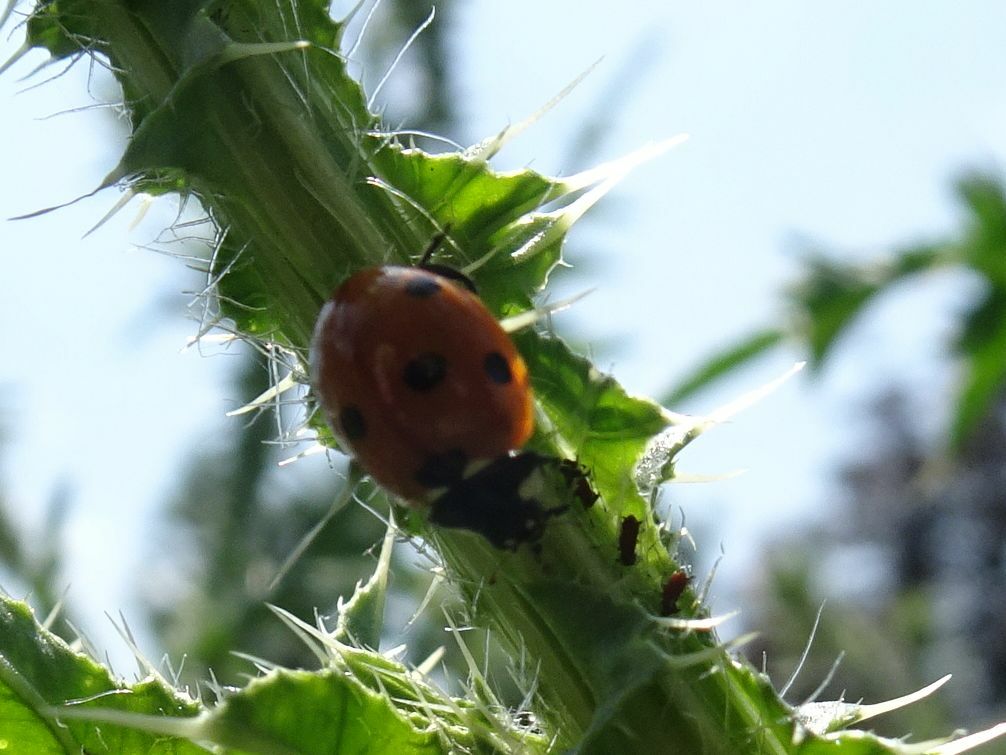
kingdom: Animalia
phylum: Arthropoda
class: Insecta
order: Coleoptera
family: Coccinellidae
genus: Coccinella
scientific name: Coccinella septempunctata
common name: Sevenspotted lady beetle
